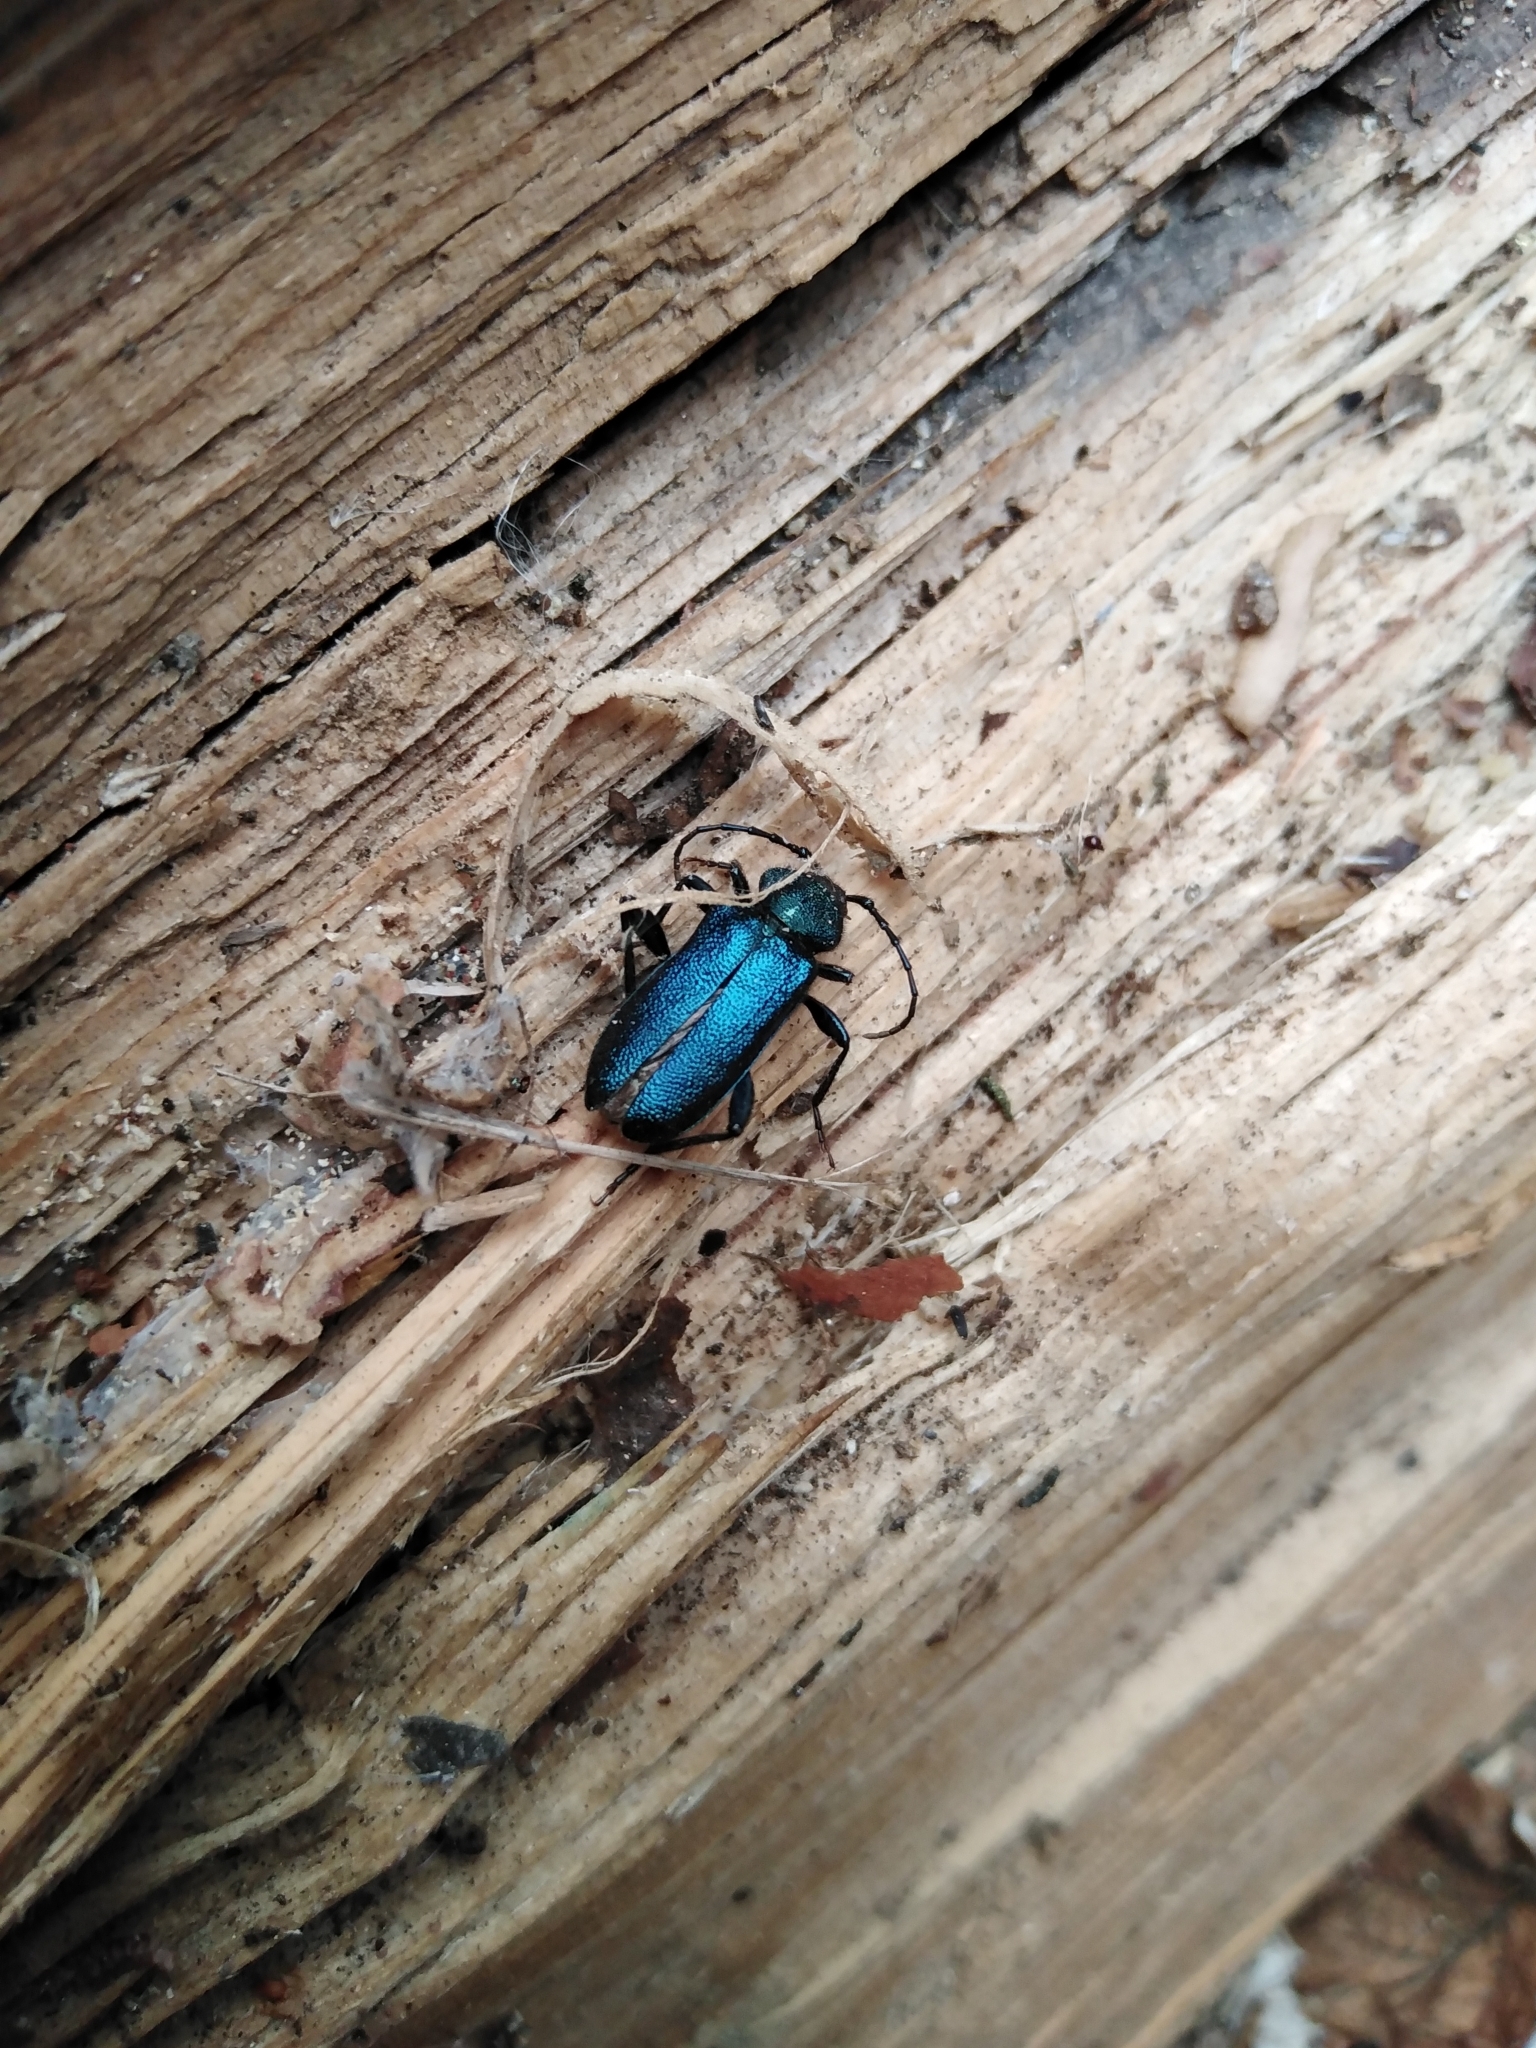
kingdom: Animalia
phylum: Arthropoda
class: Insecta
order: Coleoptera
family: Cerambycidae
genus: Callidium
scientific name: Callidium violaceum
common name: Violet tanbark beetle
